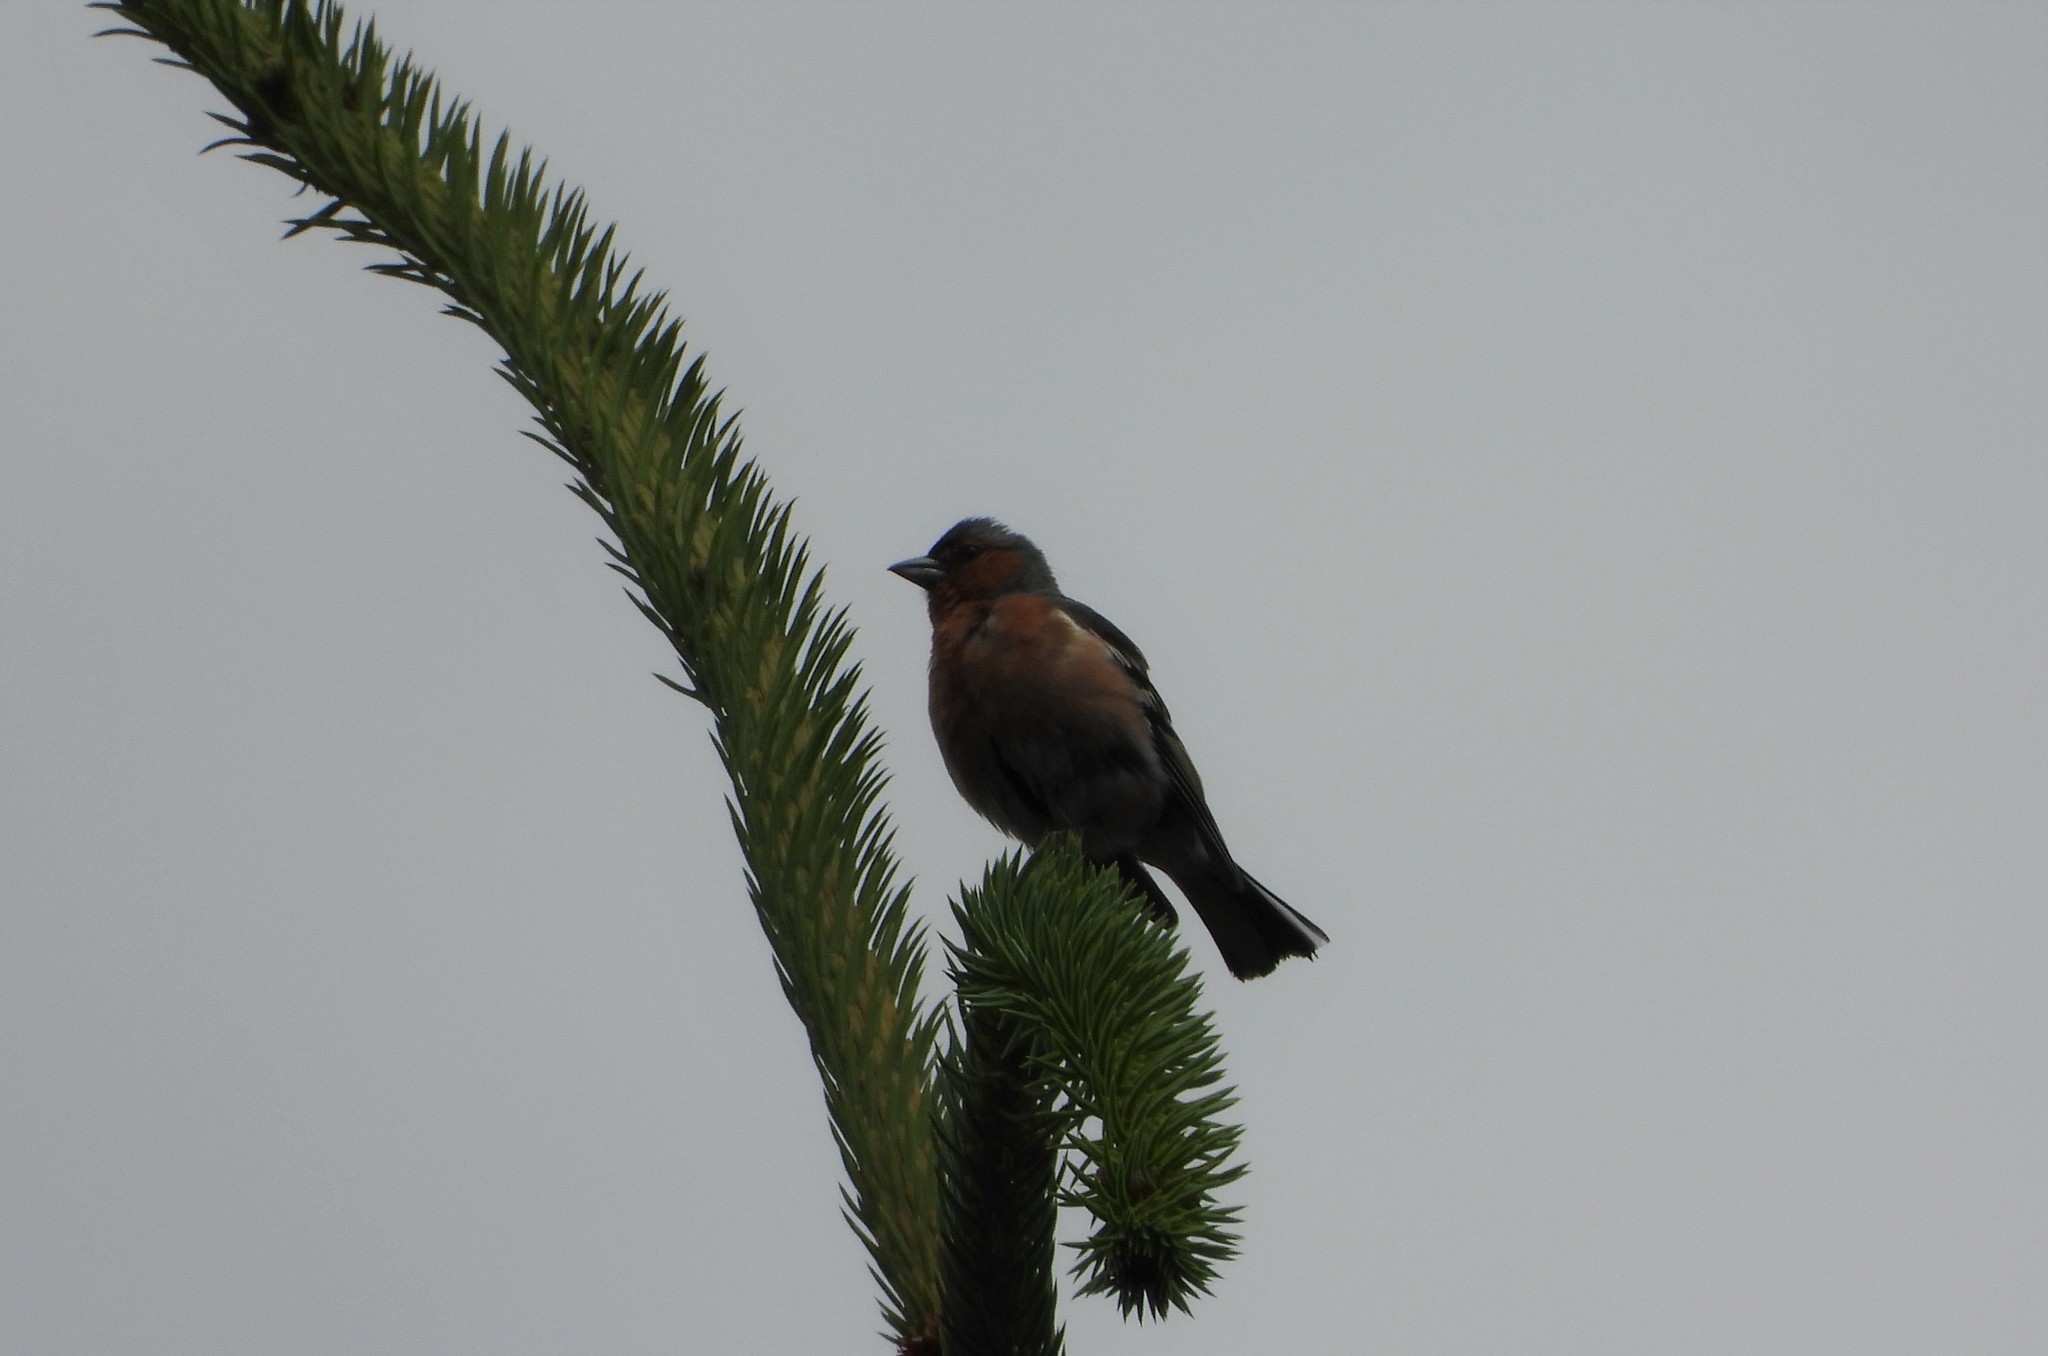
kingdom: Animalia
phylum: Chordata
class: Aves
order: Passeriformes
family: Fringillidae
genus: Fringilla
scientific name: Fringilla coelebs
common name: Common chaffinch
